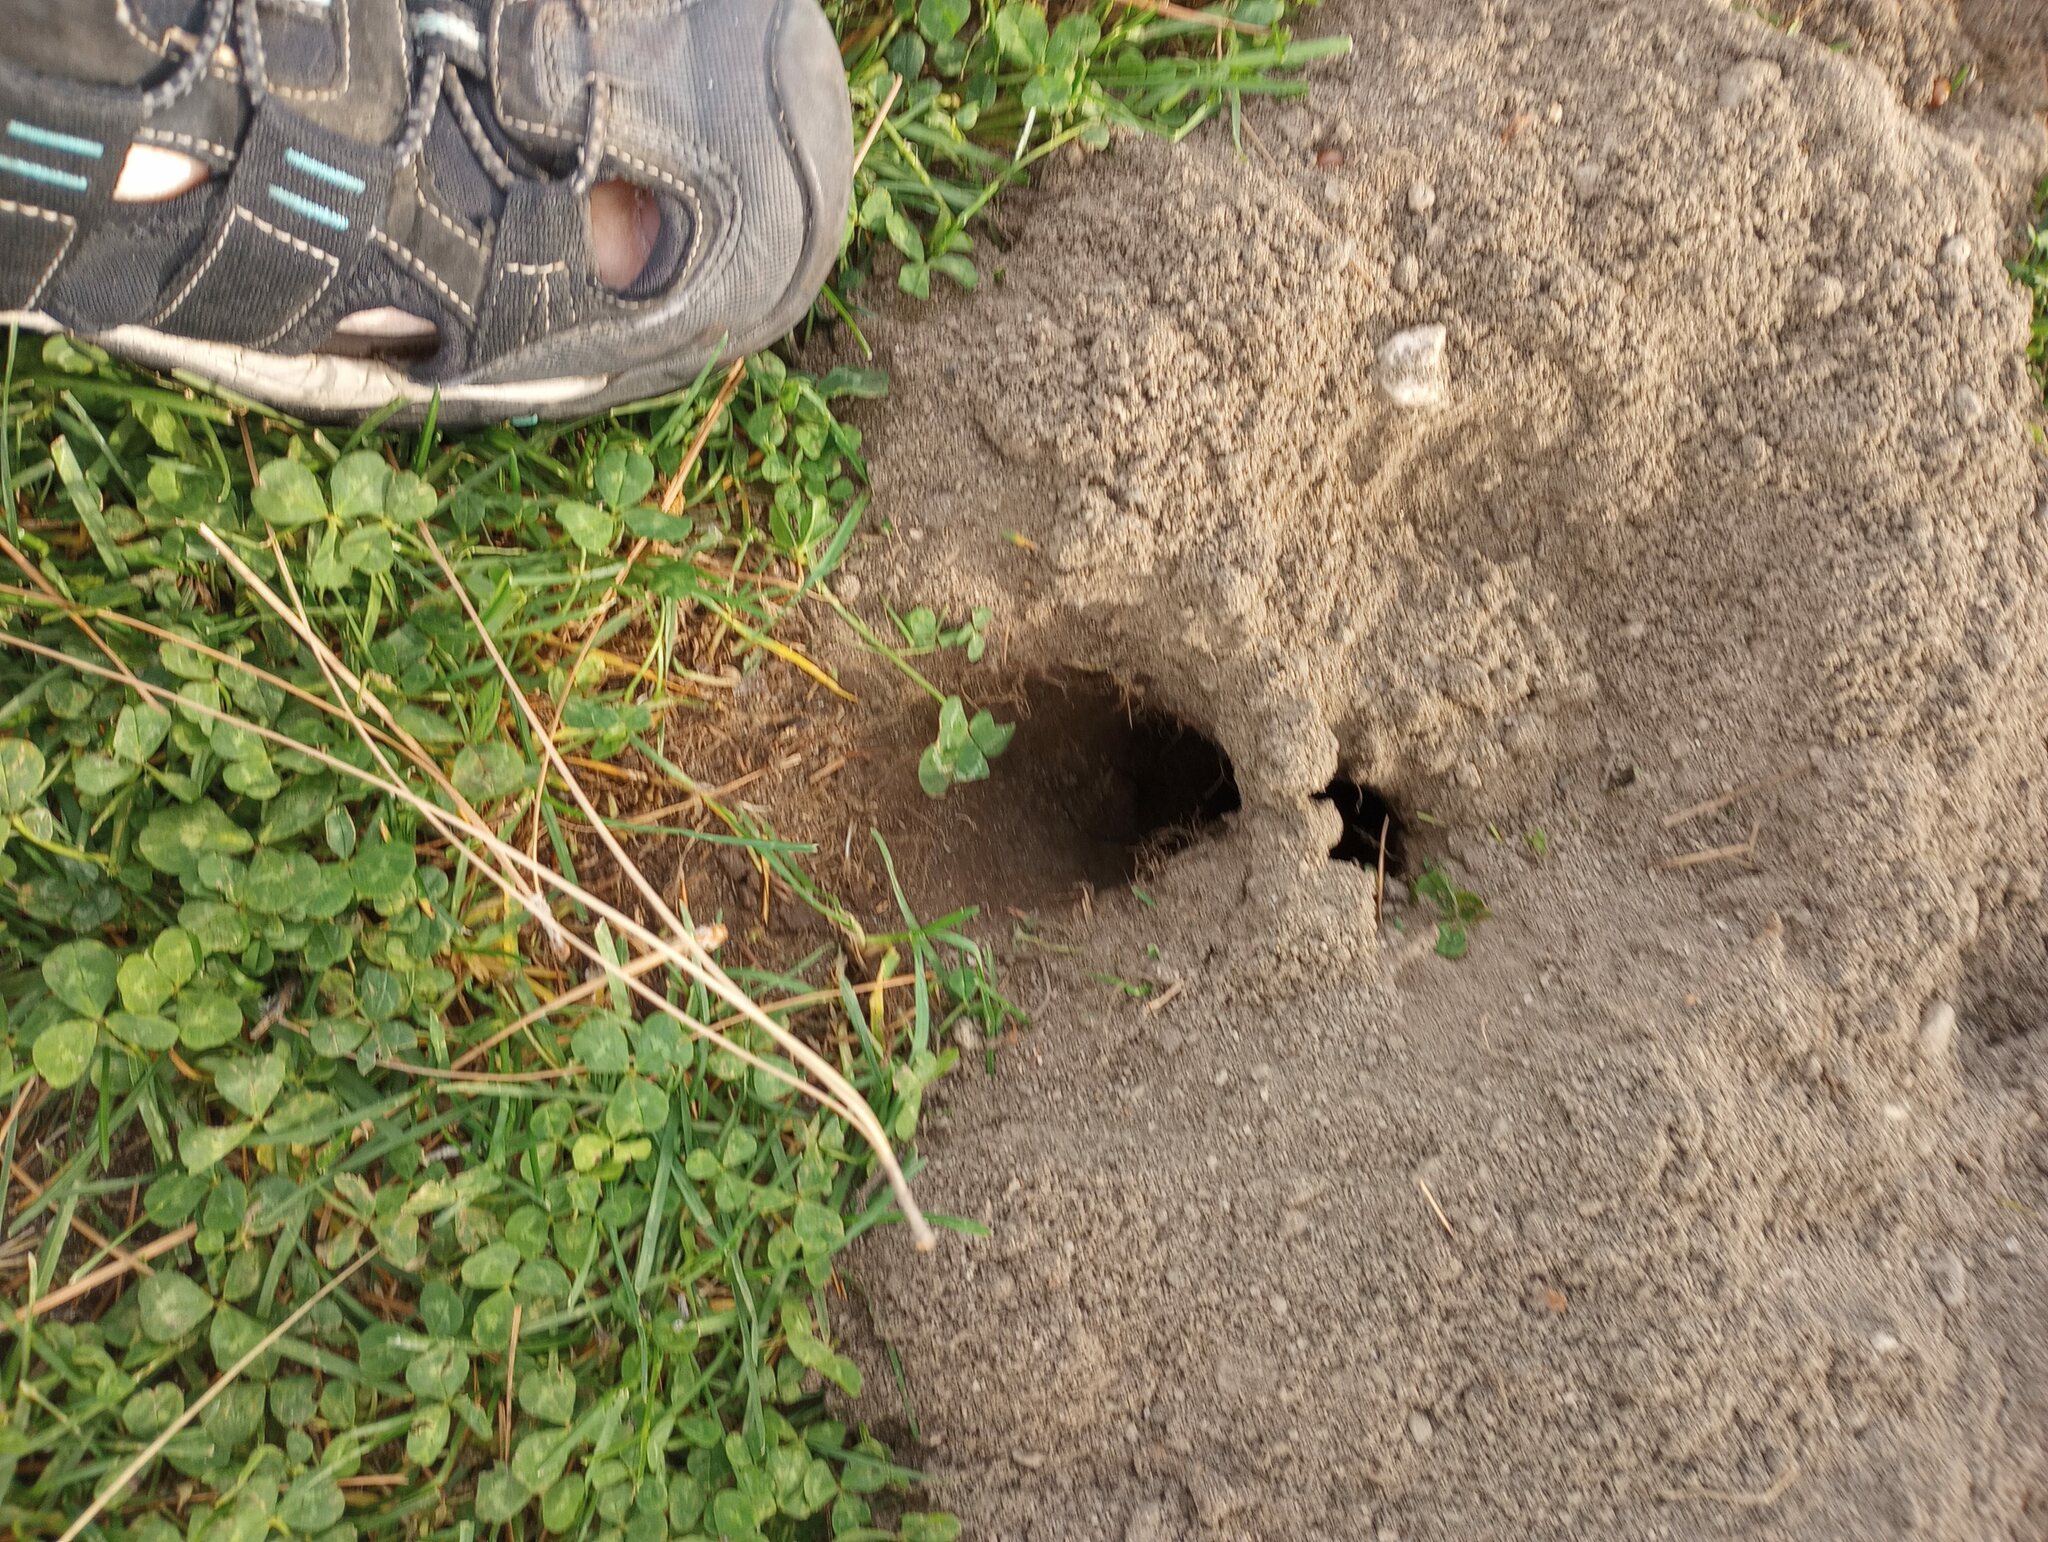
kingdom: Animalia
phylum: Chordata
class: Mammalia
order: Rodentia
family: Geomyidae
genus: Thomomys
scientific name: Thomomys bottae
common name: Botta's pocket gopher
